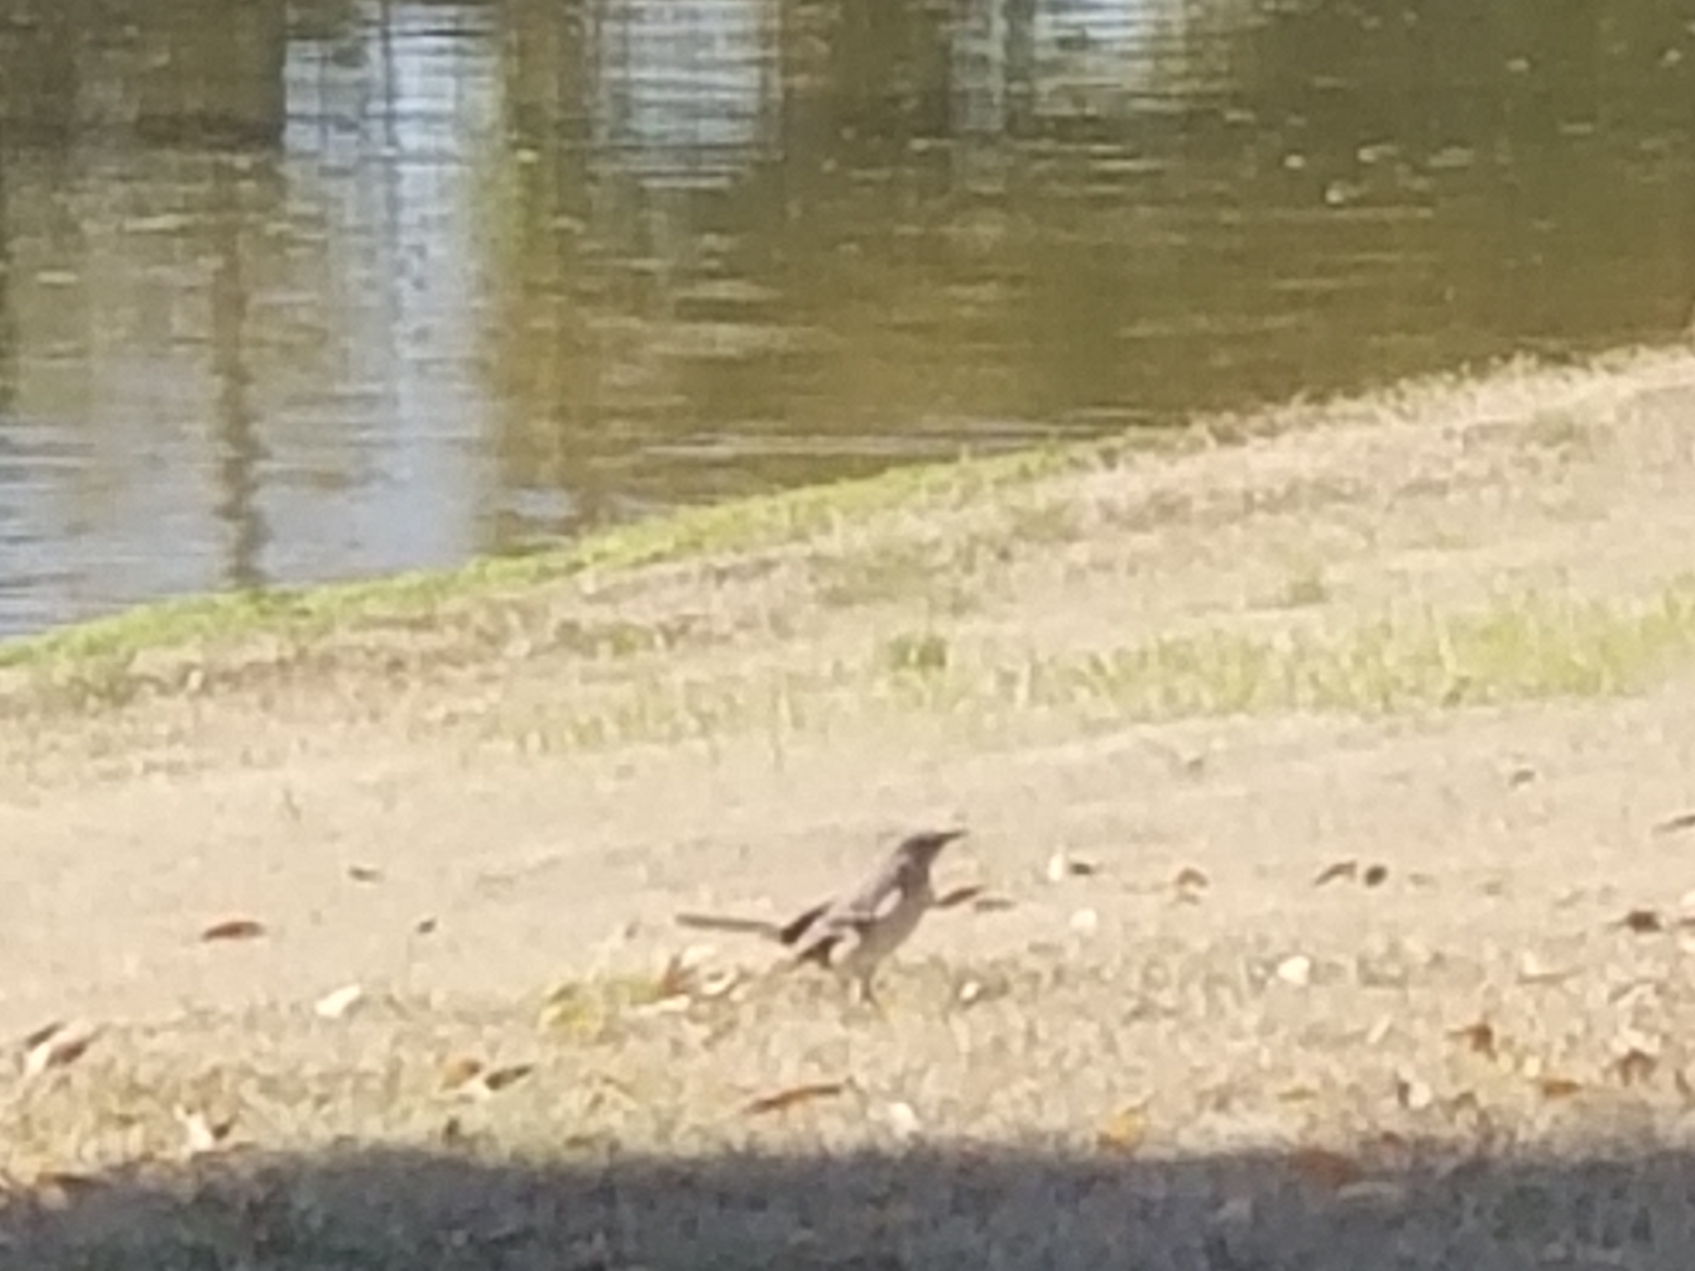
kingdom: Animalia
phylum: Chordata
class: Aves
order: Passeriformes
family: Mimidae
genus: Mimus
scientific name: Mimus polyglottos
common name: Northern mockingbird
